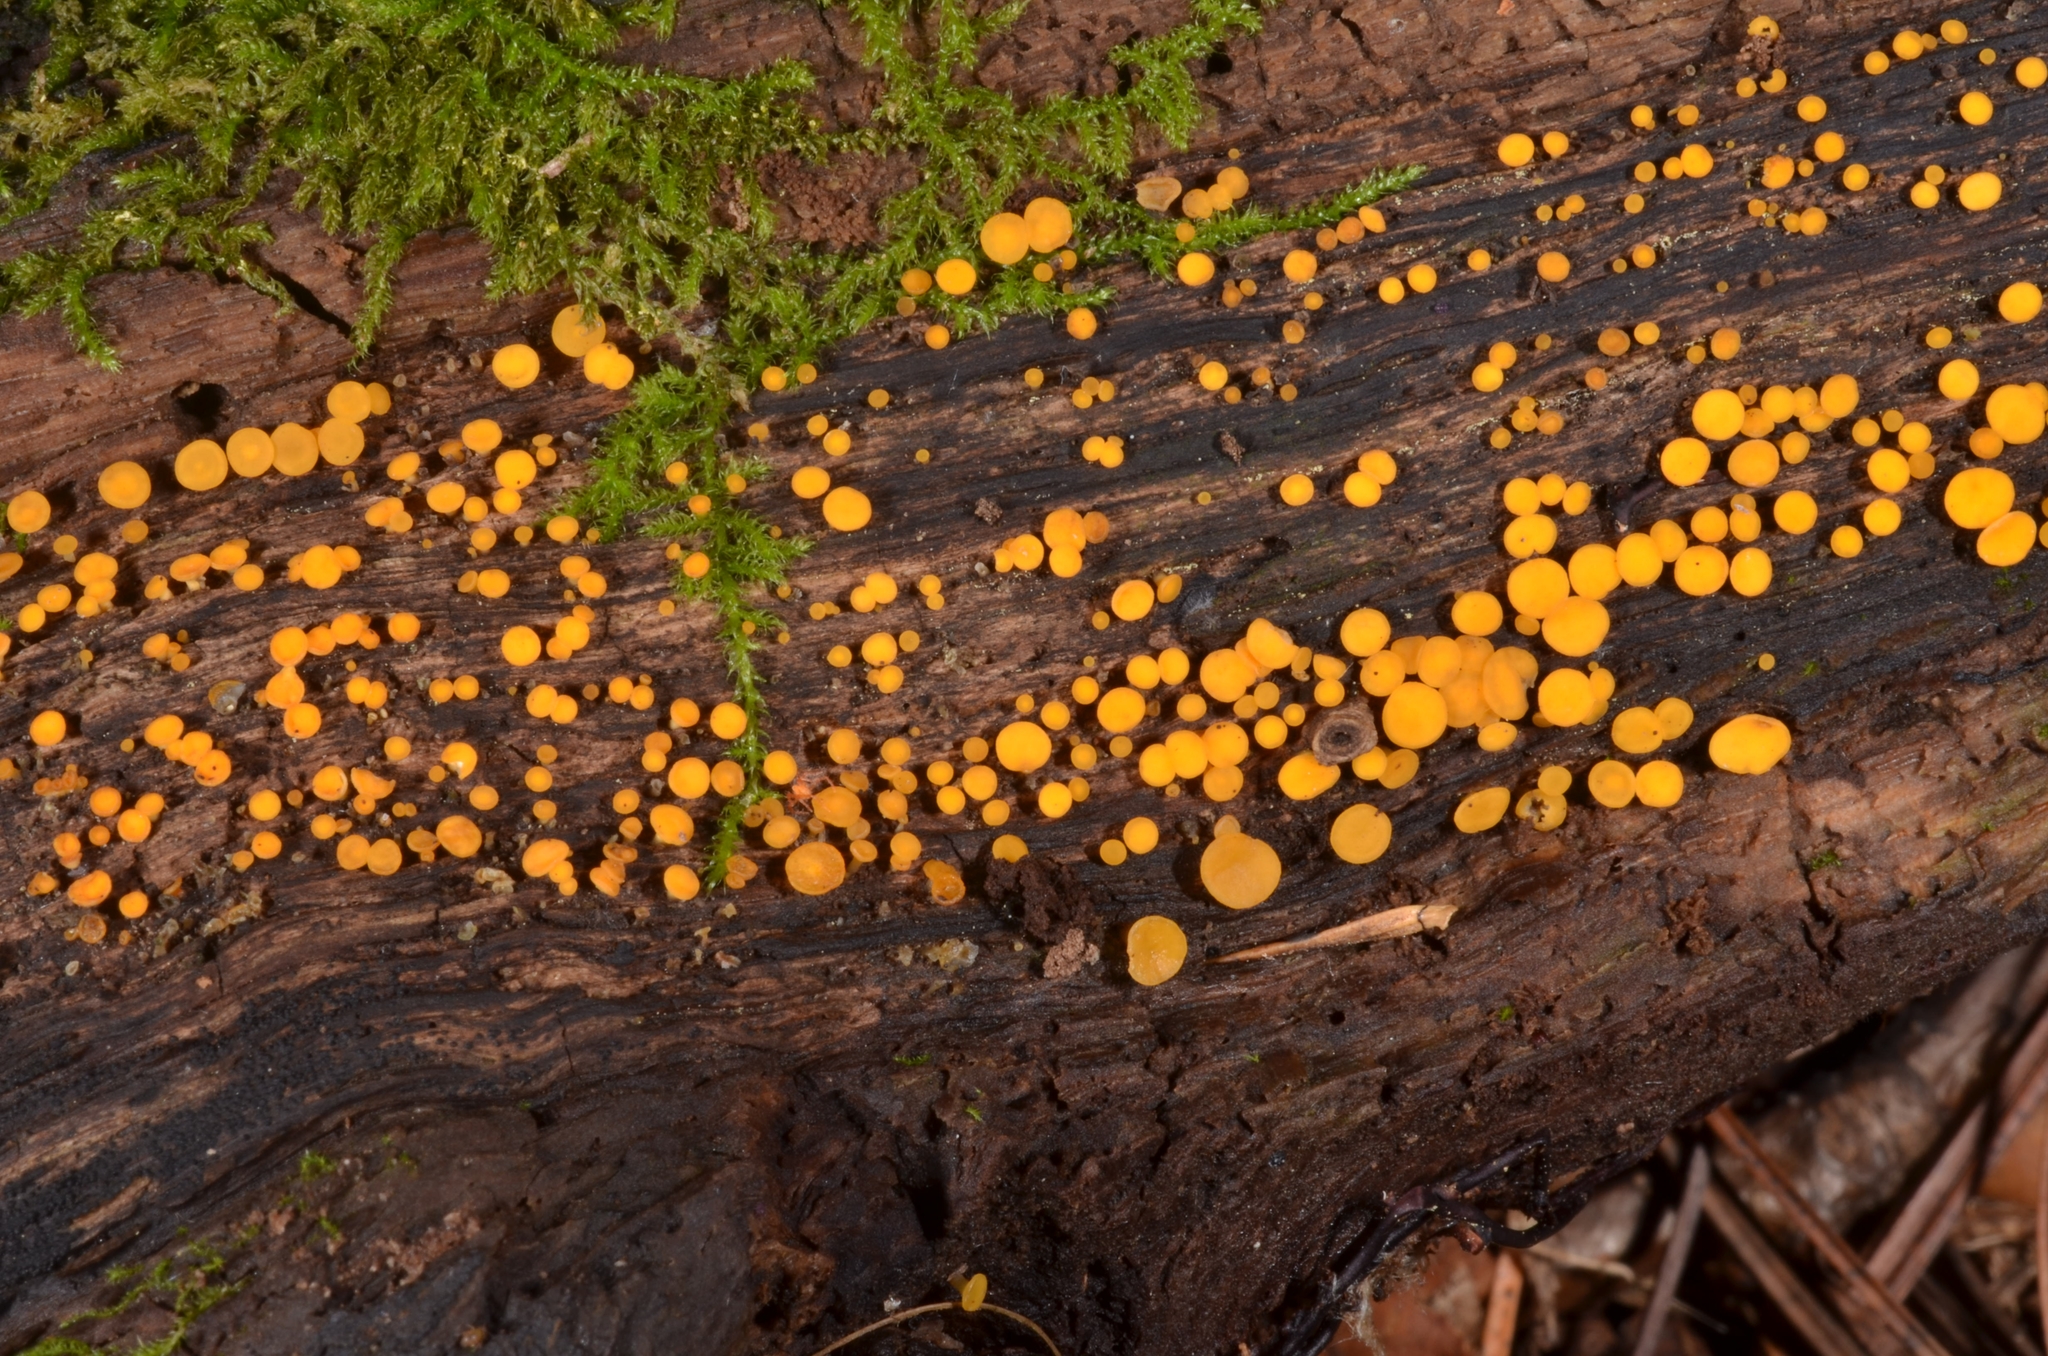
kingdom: Fungi
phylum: Ascomycota
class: Leotiomycetes
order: Helotiales
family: Pezizellaceae
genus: Calycina
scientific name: Calycina citrina
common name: Yellow fairy cups
